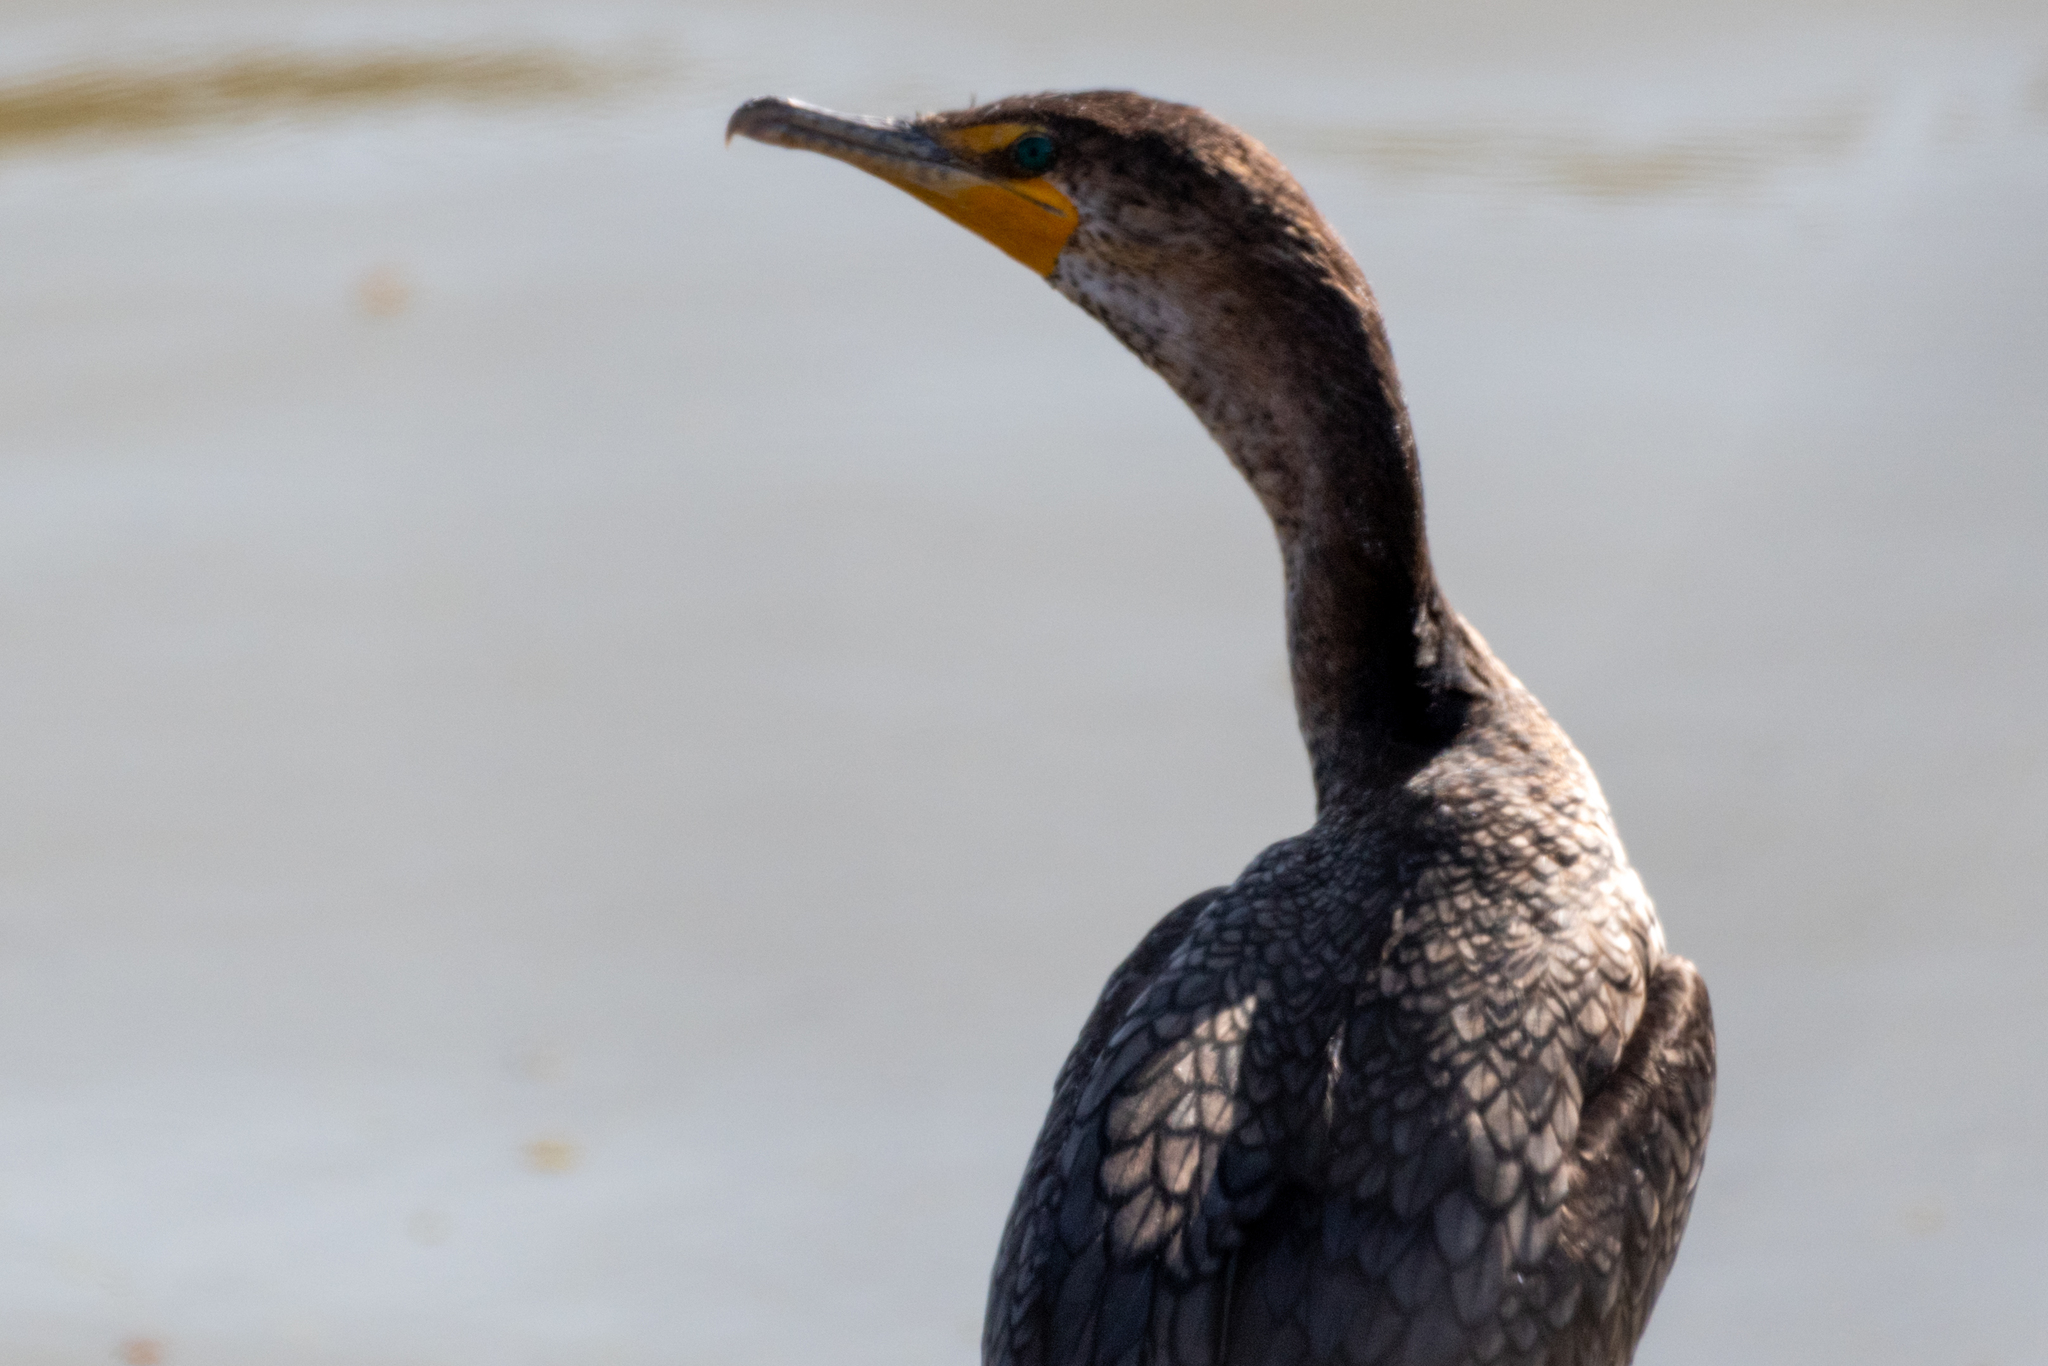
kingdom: Animalia
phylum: Chordata
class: Aves
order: Suliformes
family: Phalacrocoracidae
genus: Phalacrocorax
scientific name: Phalacrocorax auritus
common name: Double-crested cormorant
